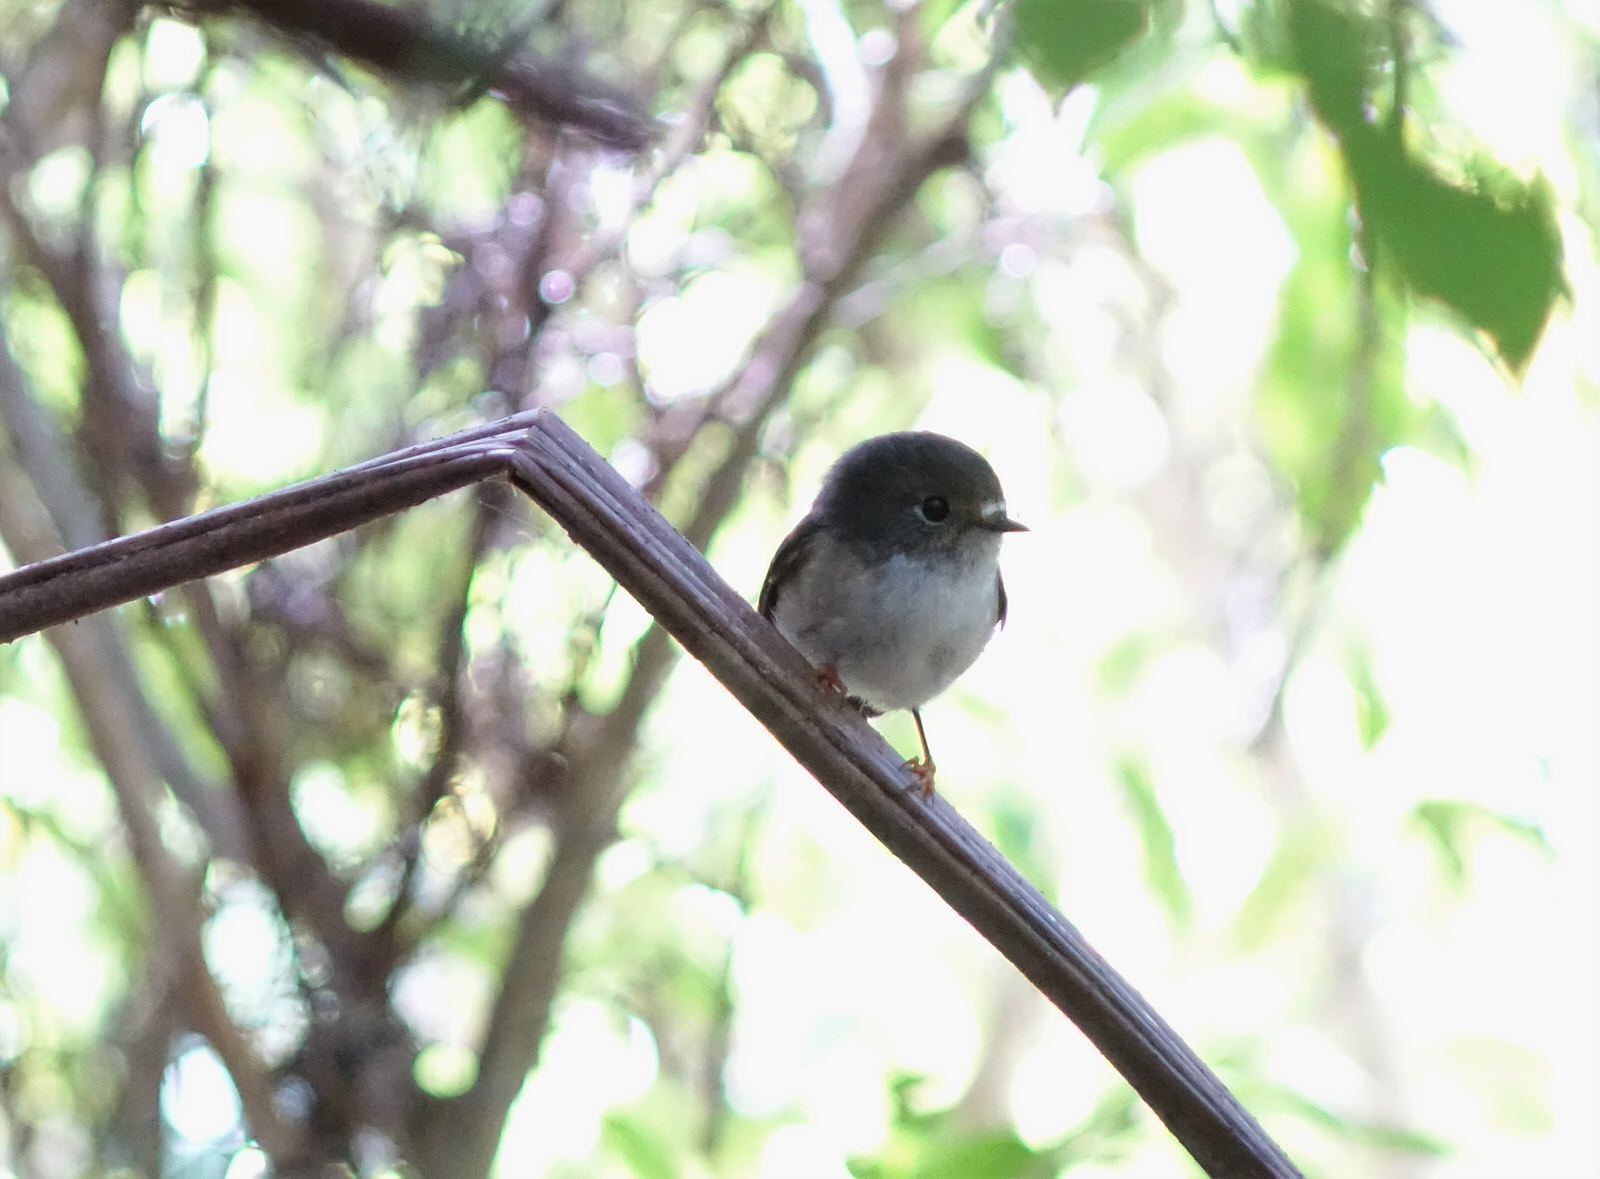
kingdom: Animalia
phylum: Chordata
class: Aves
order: Passeriformes
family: Petroicidae
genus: Petroica
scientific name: Petroica macrocephala
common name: Tomtit
